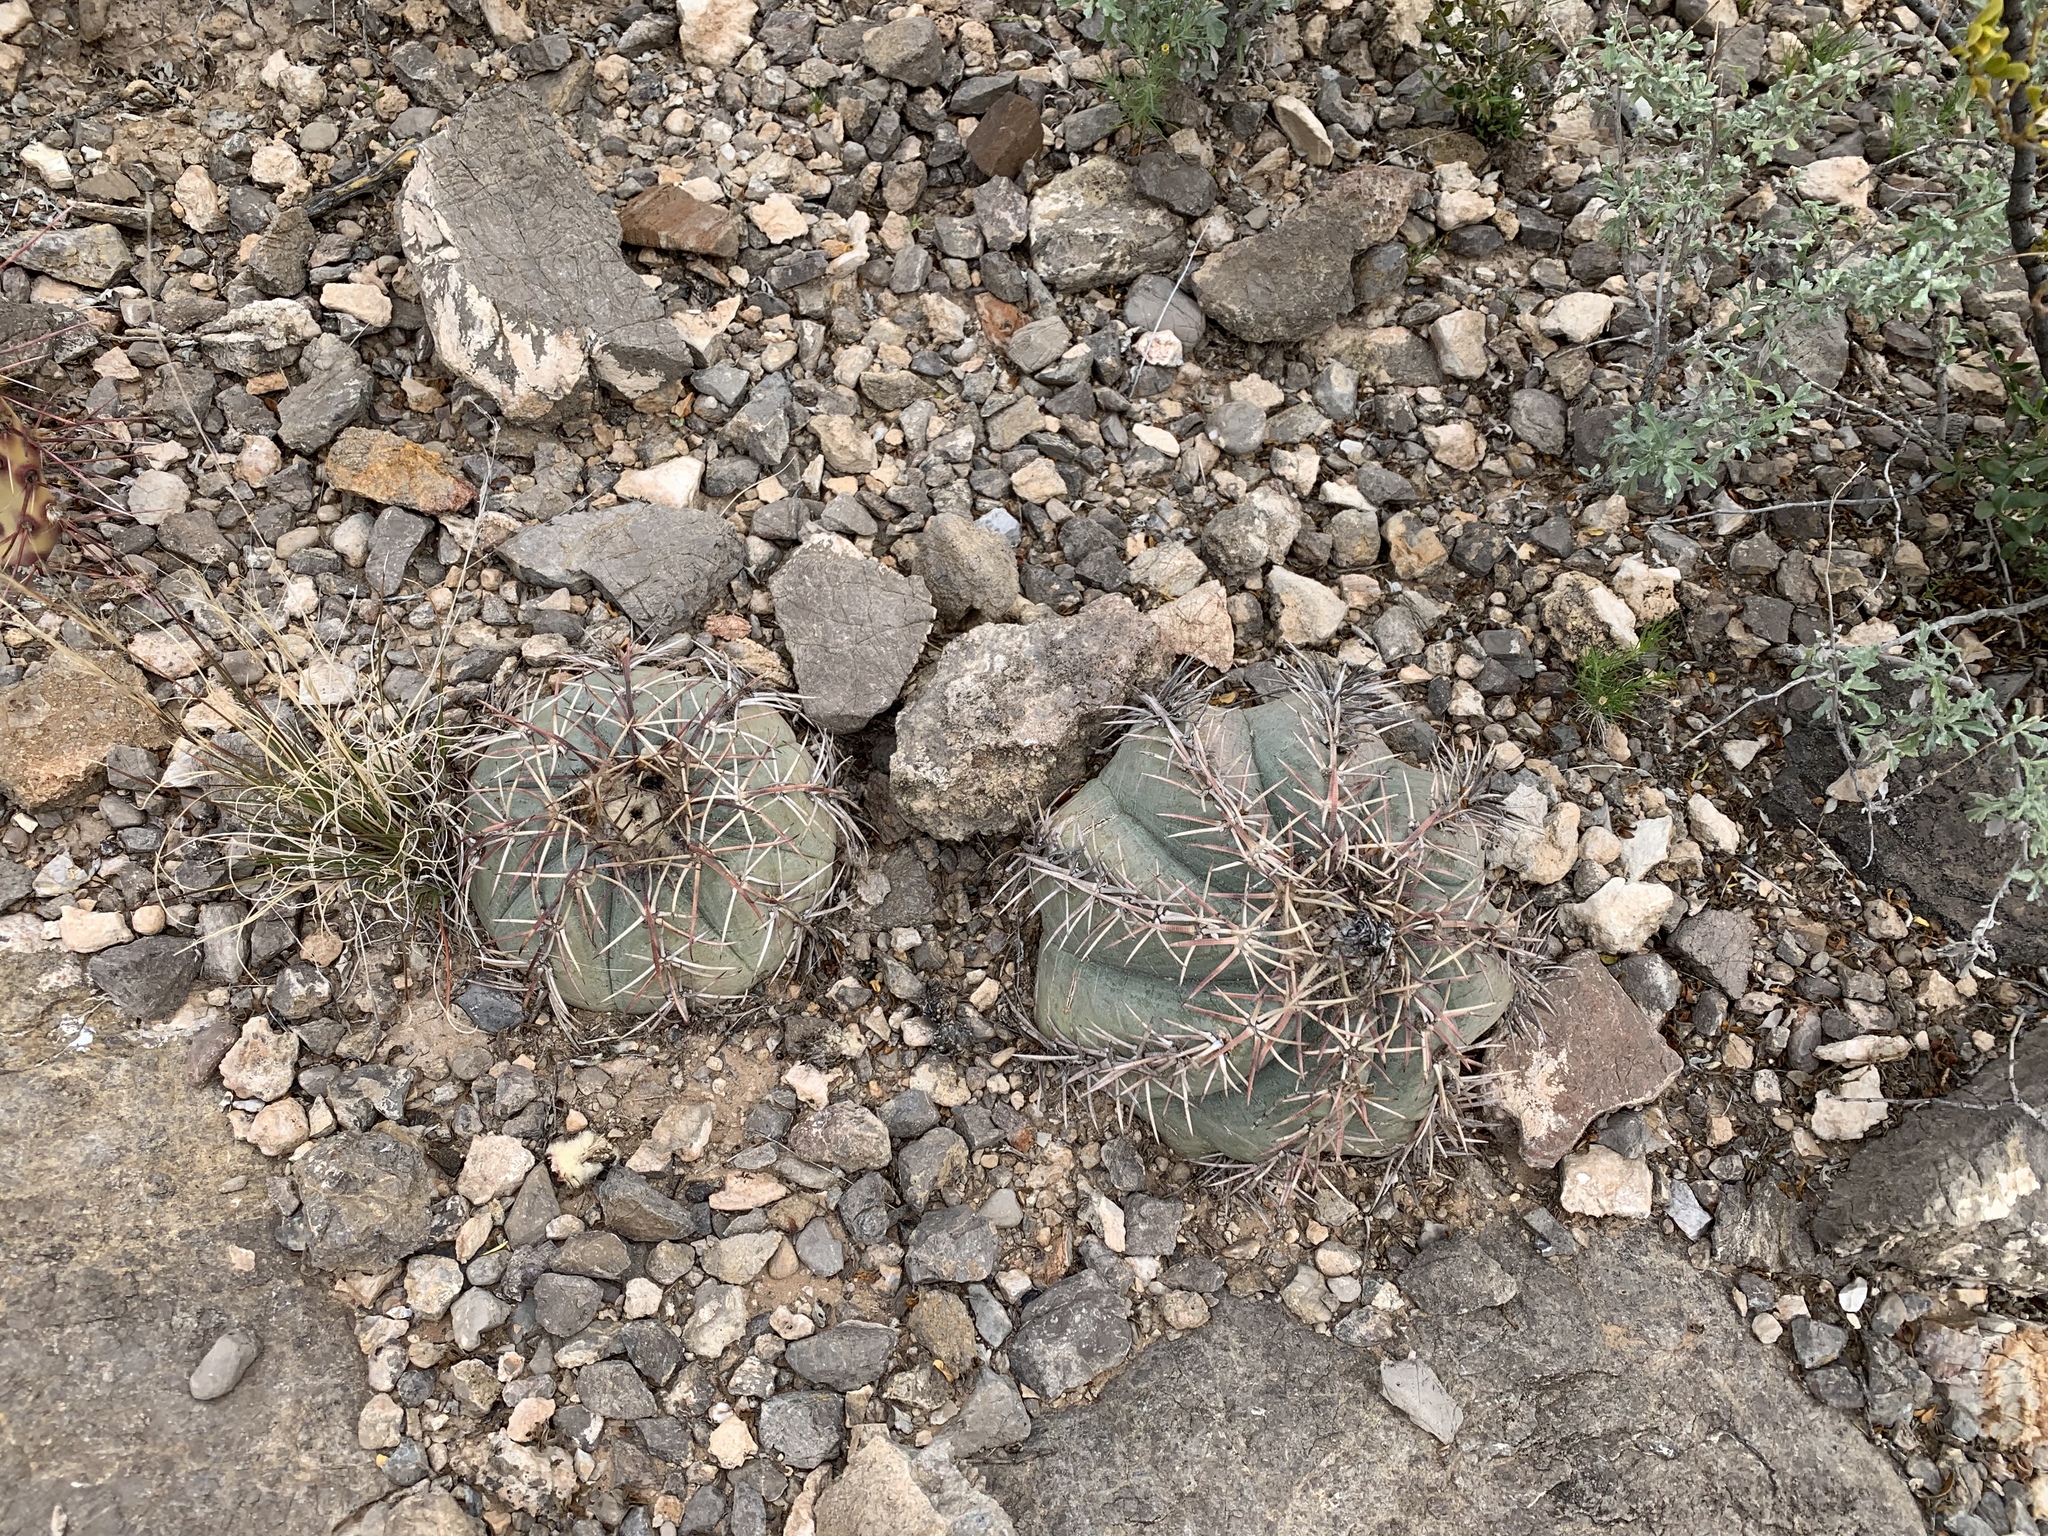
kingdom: Plantae
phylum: Tracheophyta
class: Magnoliopsida
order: Caryophyllales
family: Cactaceae
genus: Echinocactus
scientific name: Echinocactus horizonthalonius
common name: Devilshead
